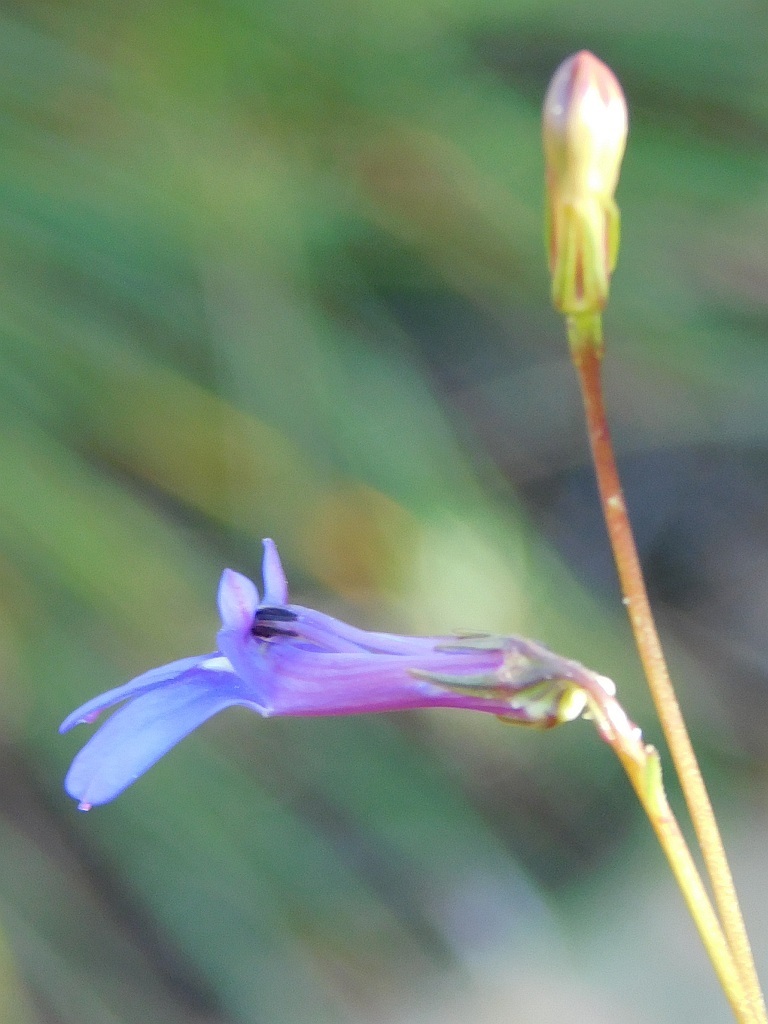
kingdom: Plantae
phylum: Tracheophyta
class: Magnoliopsida
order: Asterales
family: Campanulaceae
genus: Lobelia
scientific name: Lobelia chamaepitys
